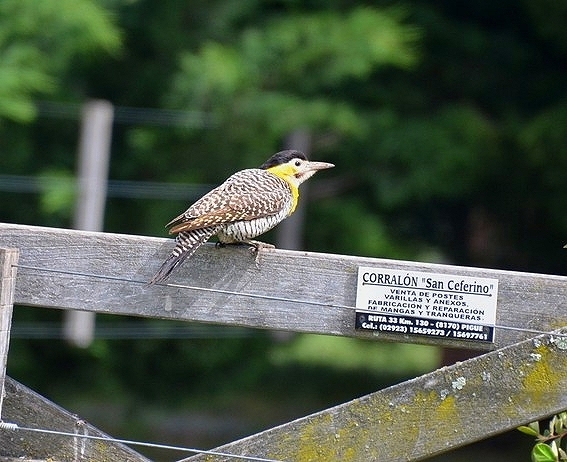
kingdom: Animalia
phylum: Chordata
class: Aves
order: Piciformes
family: Picidae
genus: Colaptes
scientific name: Colaptes campestris
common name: Campo flicker
